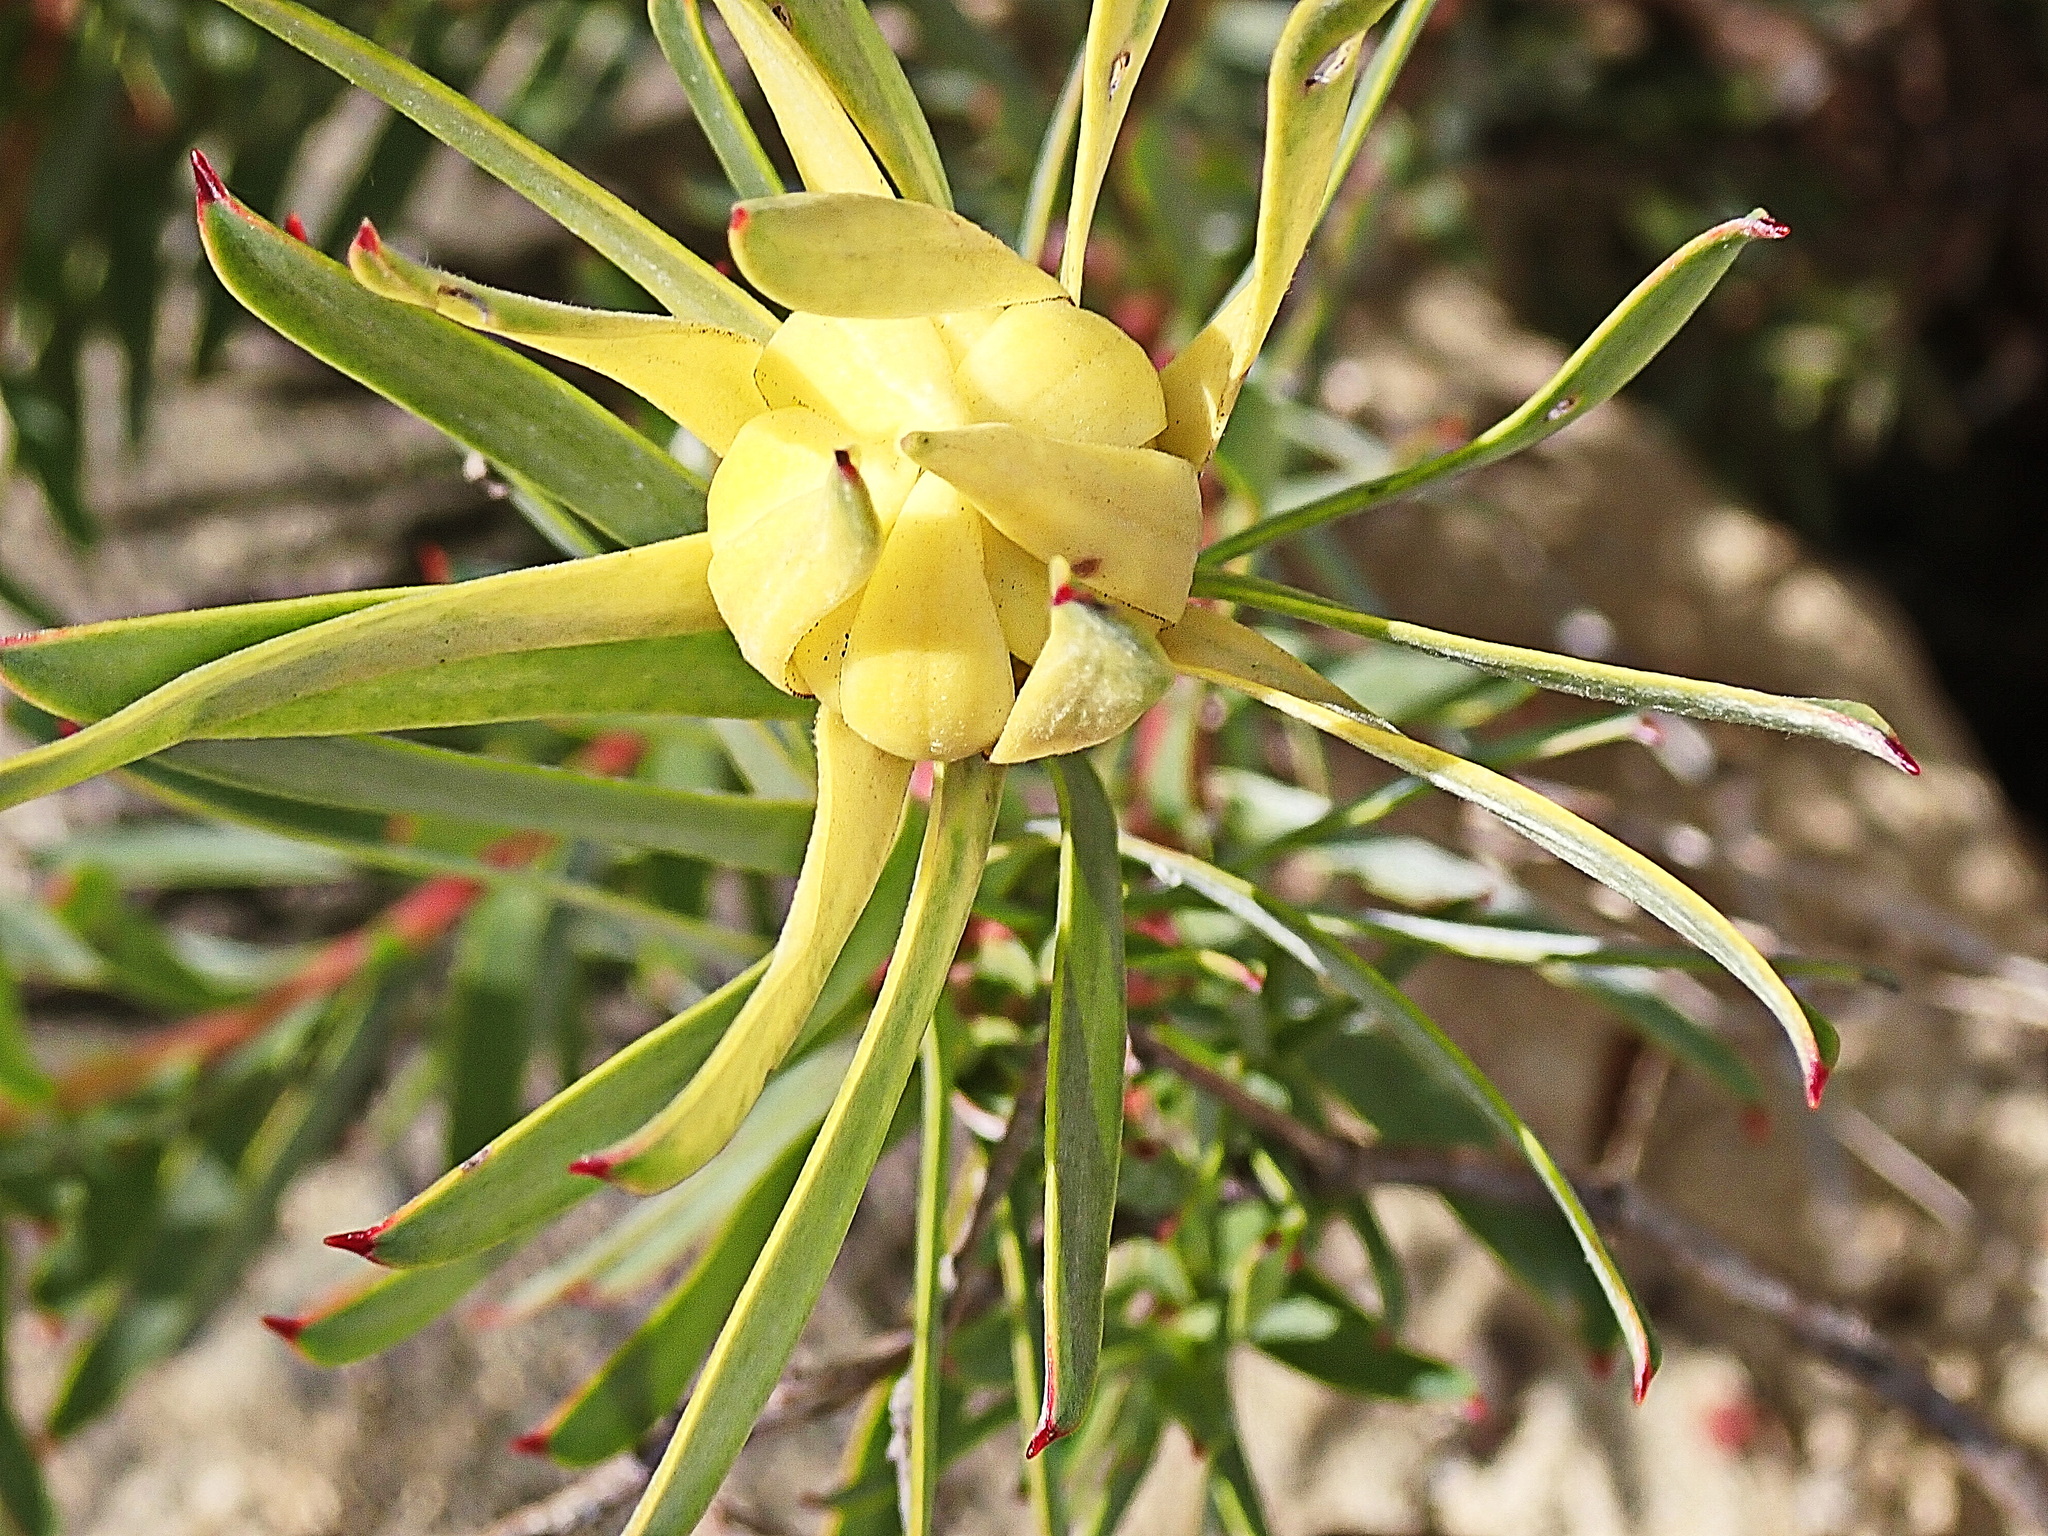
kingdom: Plantae
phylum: Tracheophyta
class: Magnoliopsida
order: Proteales
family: Proteaceae
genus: Leucadendron
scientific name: Leucadendron meridianum
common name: Limestone conebush
